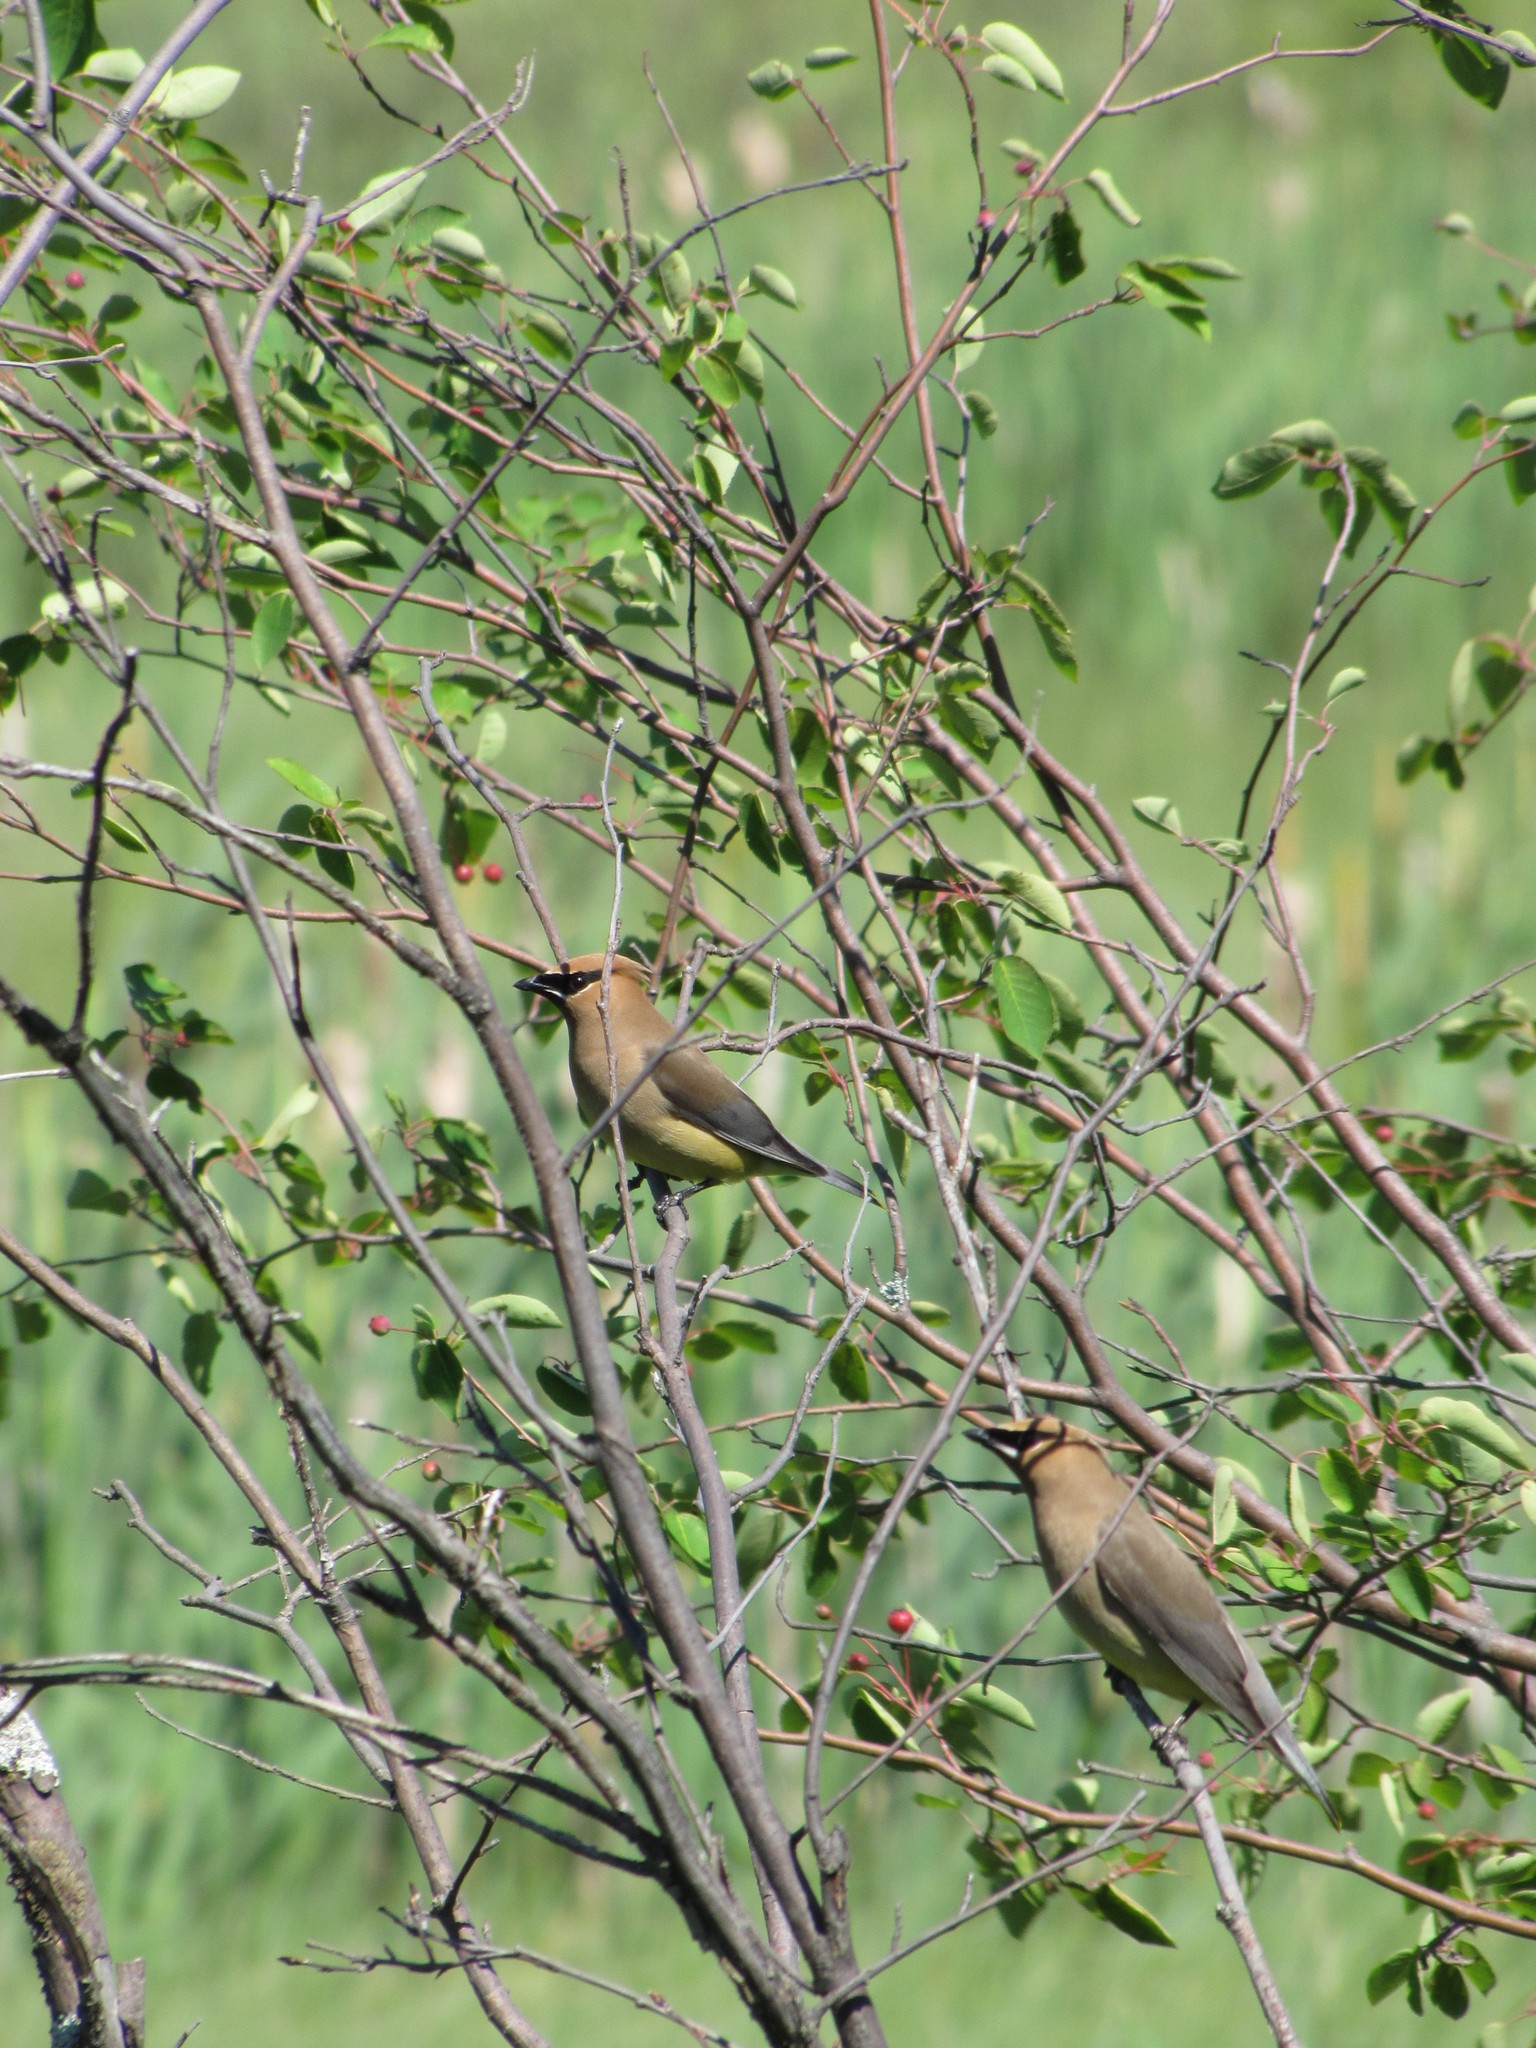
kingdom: Animalia
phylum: Chordata
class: Aves
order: Passeriformes
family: Bombycillidae
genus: Bombycilla
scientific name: Bombycilla cedrorum
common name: Cedar waxwing
